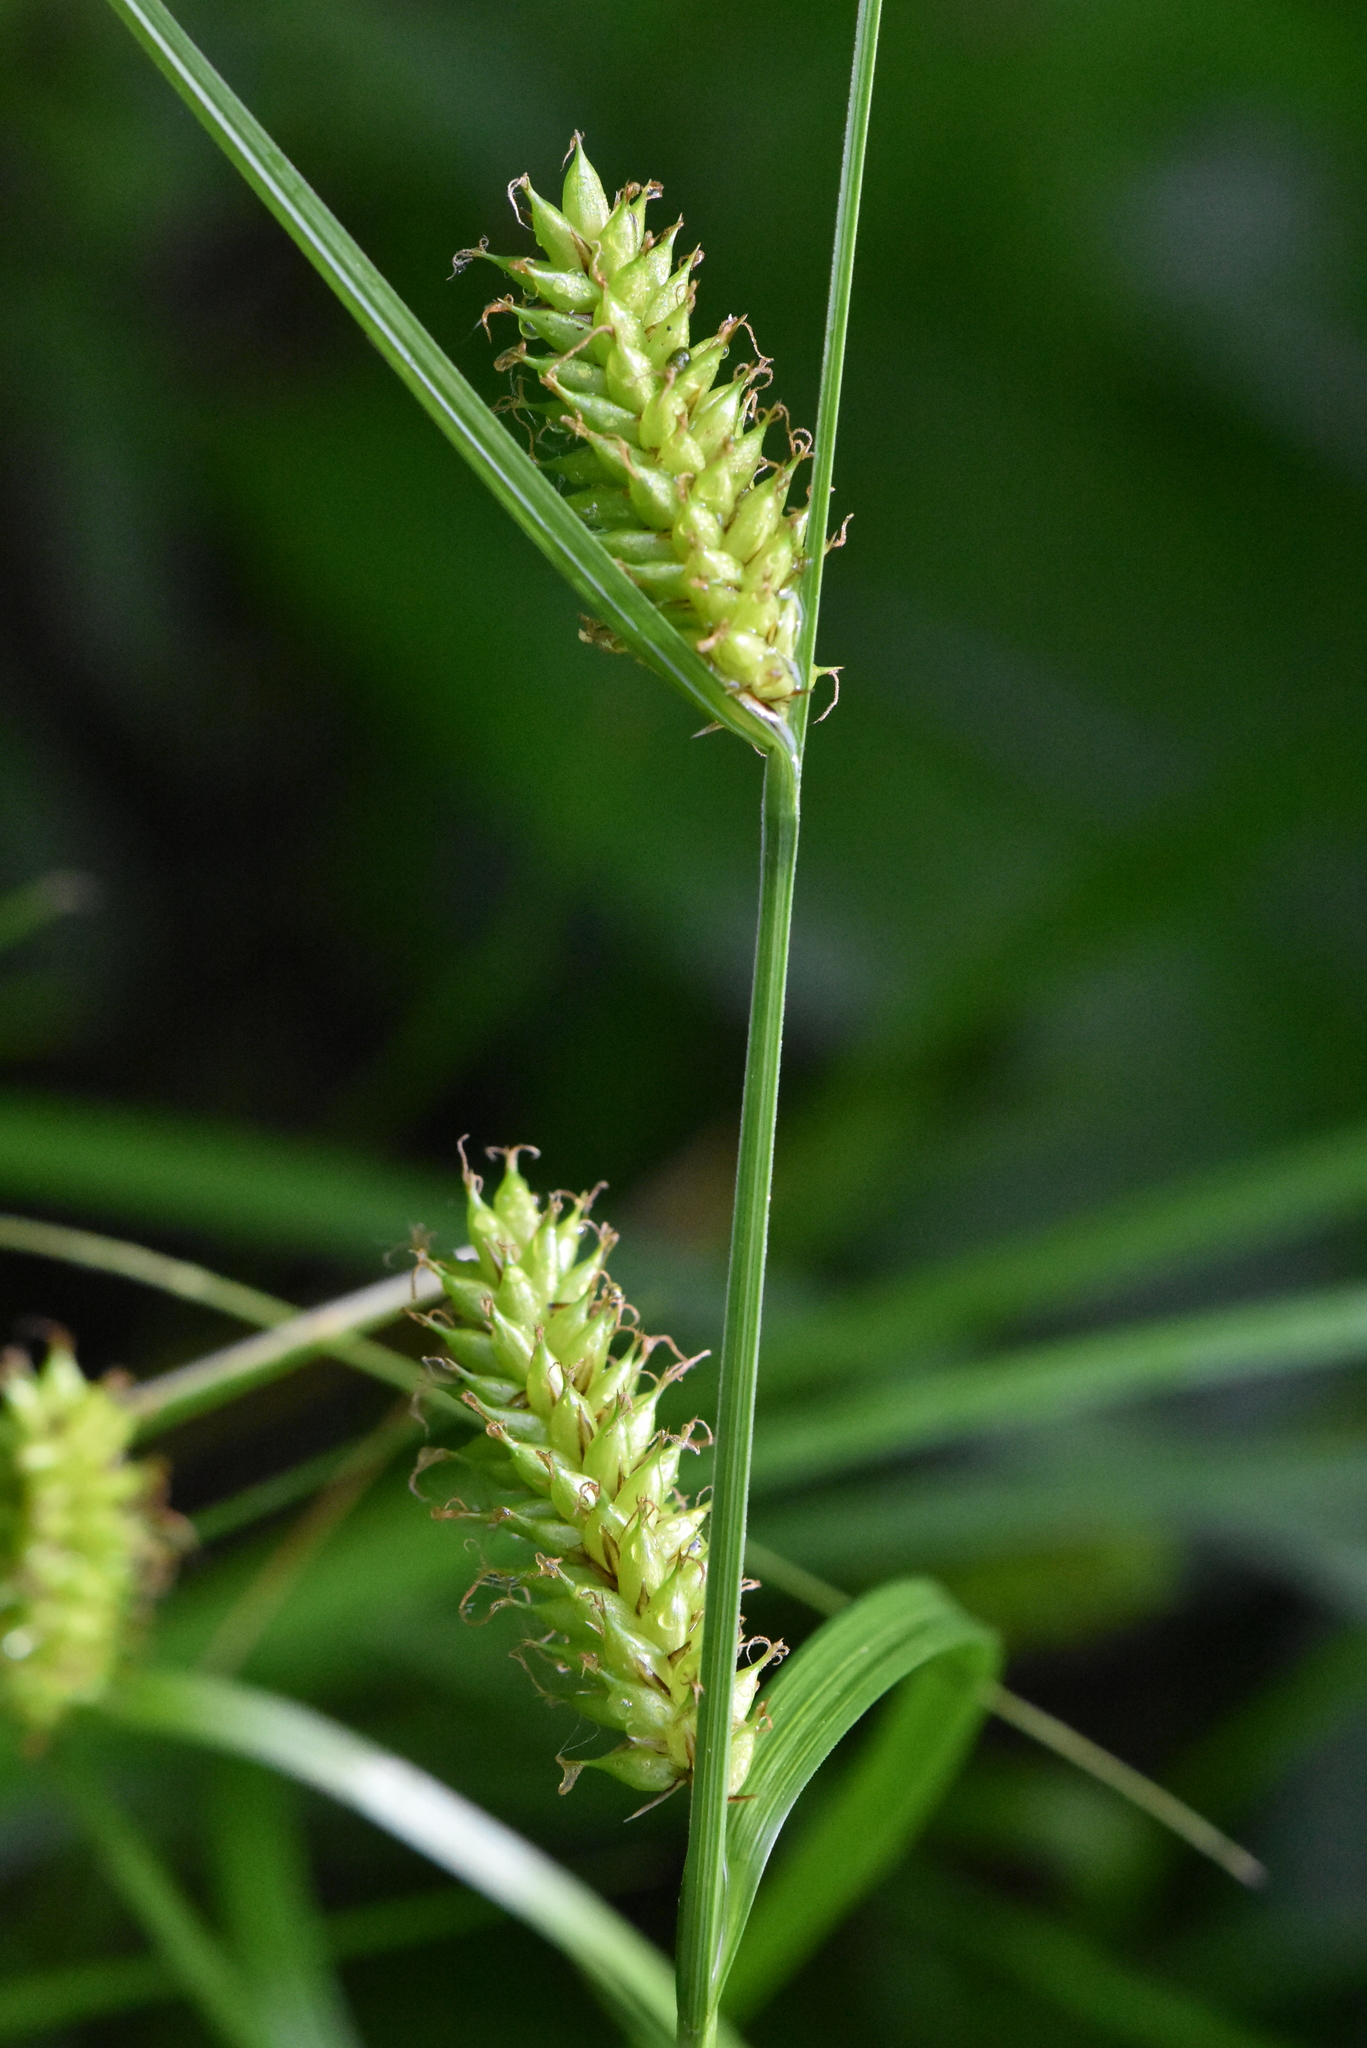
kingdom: Plantae
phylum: Tracheophyta
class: Liliopsida
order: Poales
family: Cyperaceae
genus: Carex
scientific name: Carex vesicaria
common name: Bladder-sedge
